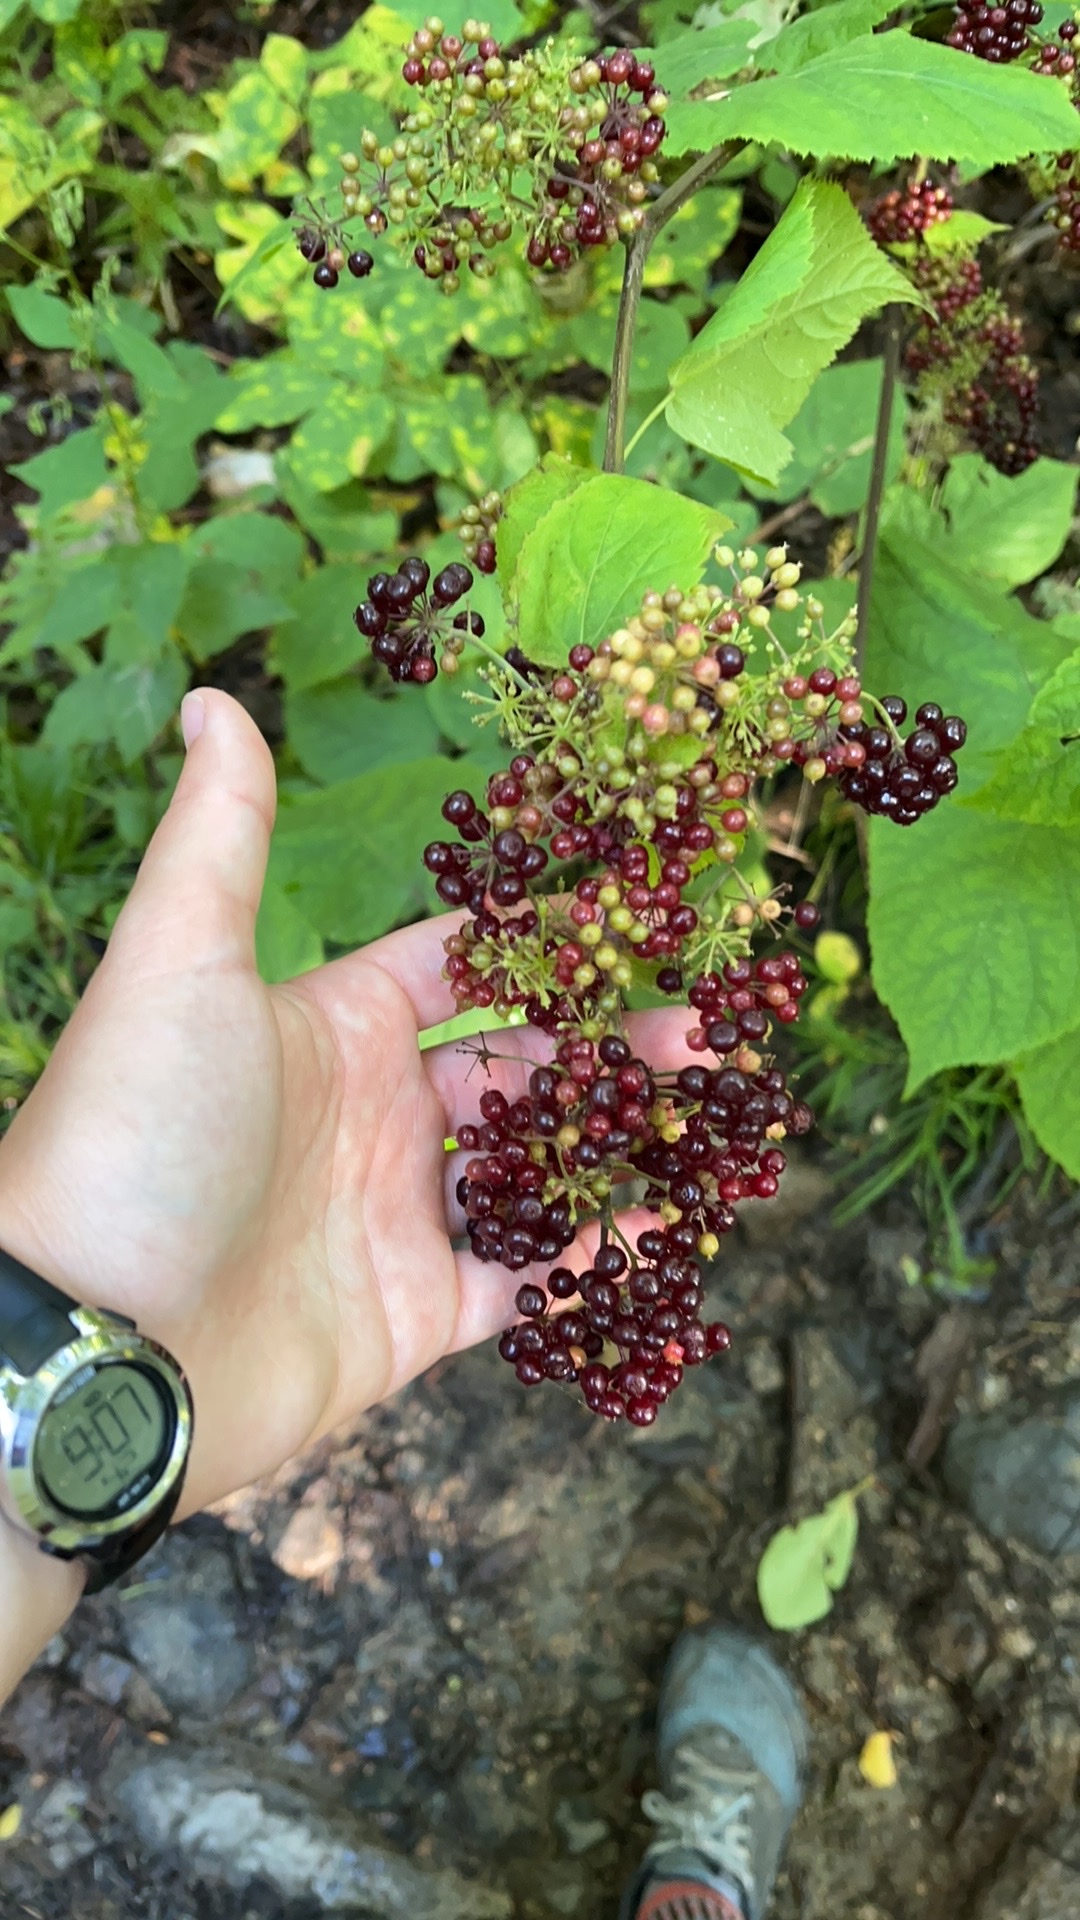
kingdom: Plantae
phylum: Tracheophyta
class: Magnoliopsida
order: Apiales
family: Araliaceae
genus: Aralia
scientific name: Aralia racemosa
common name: American-spikenard
